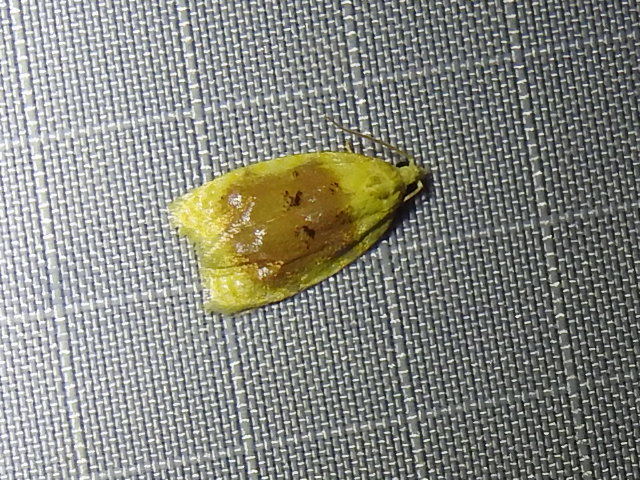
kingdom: Animalia
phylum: Arthropoda
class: Insecta
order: Lepidoptera
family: Tortricidae
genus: Acleris
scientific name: Acleris semipurpurana
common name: Oak leaftier moth
